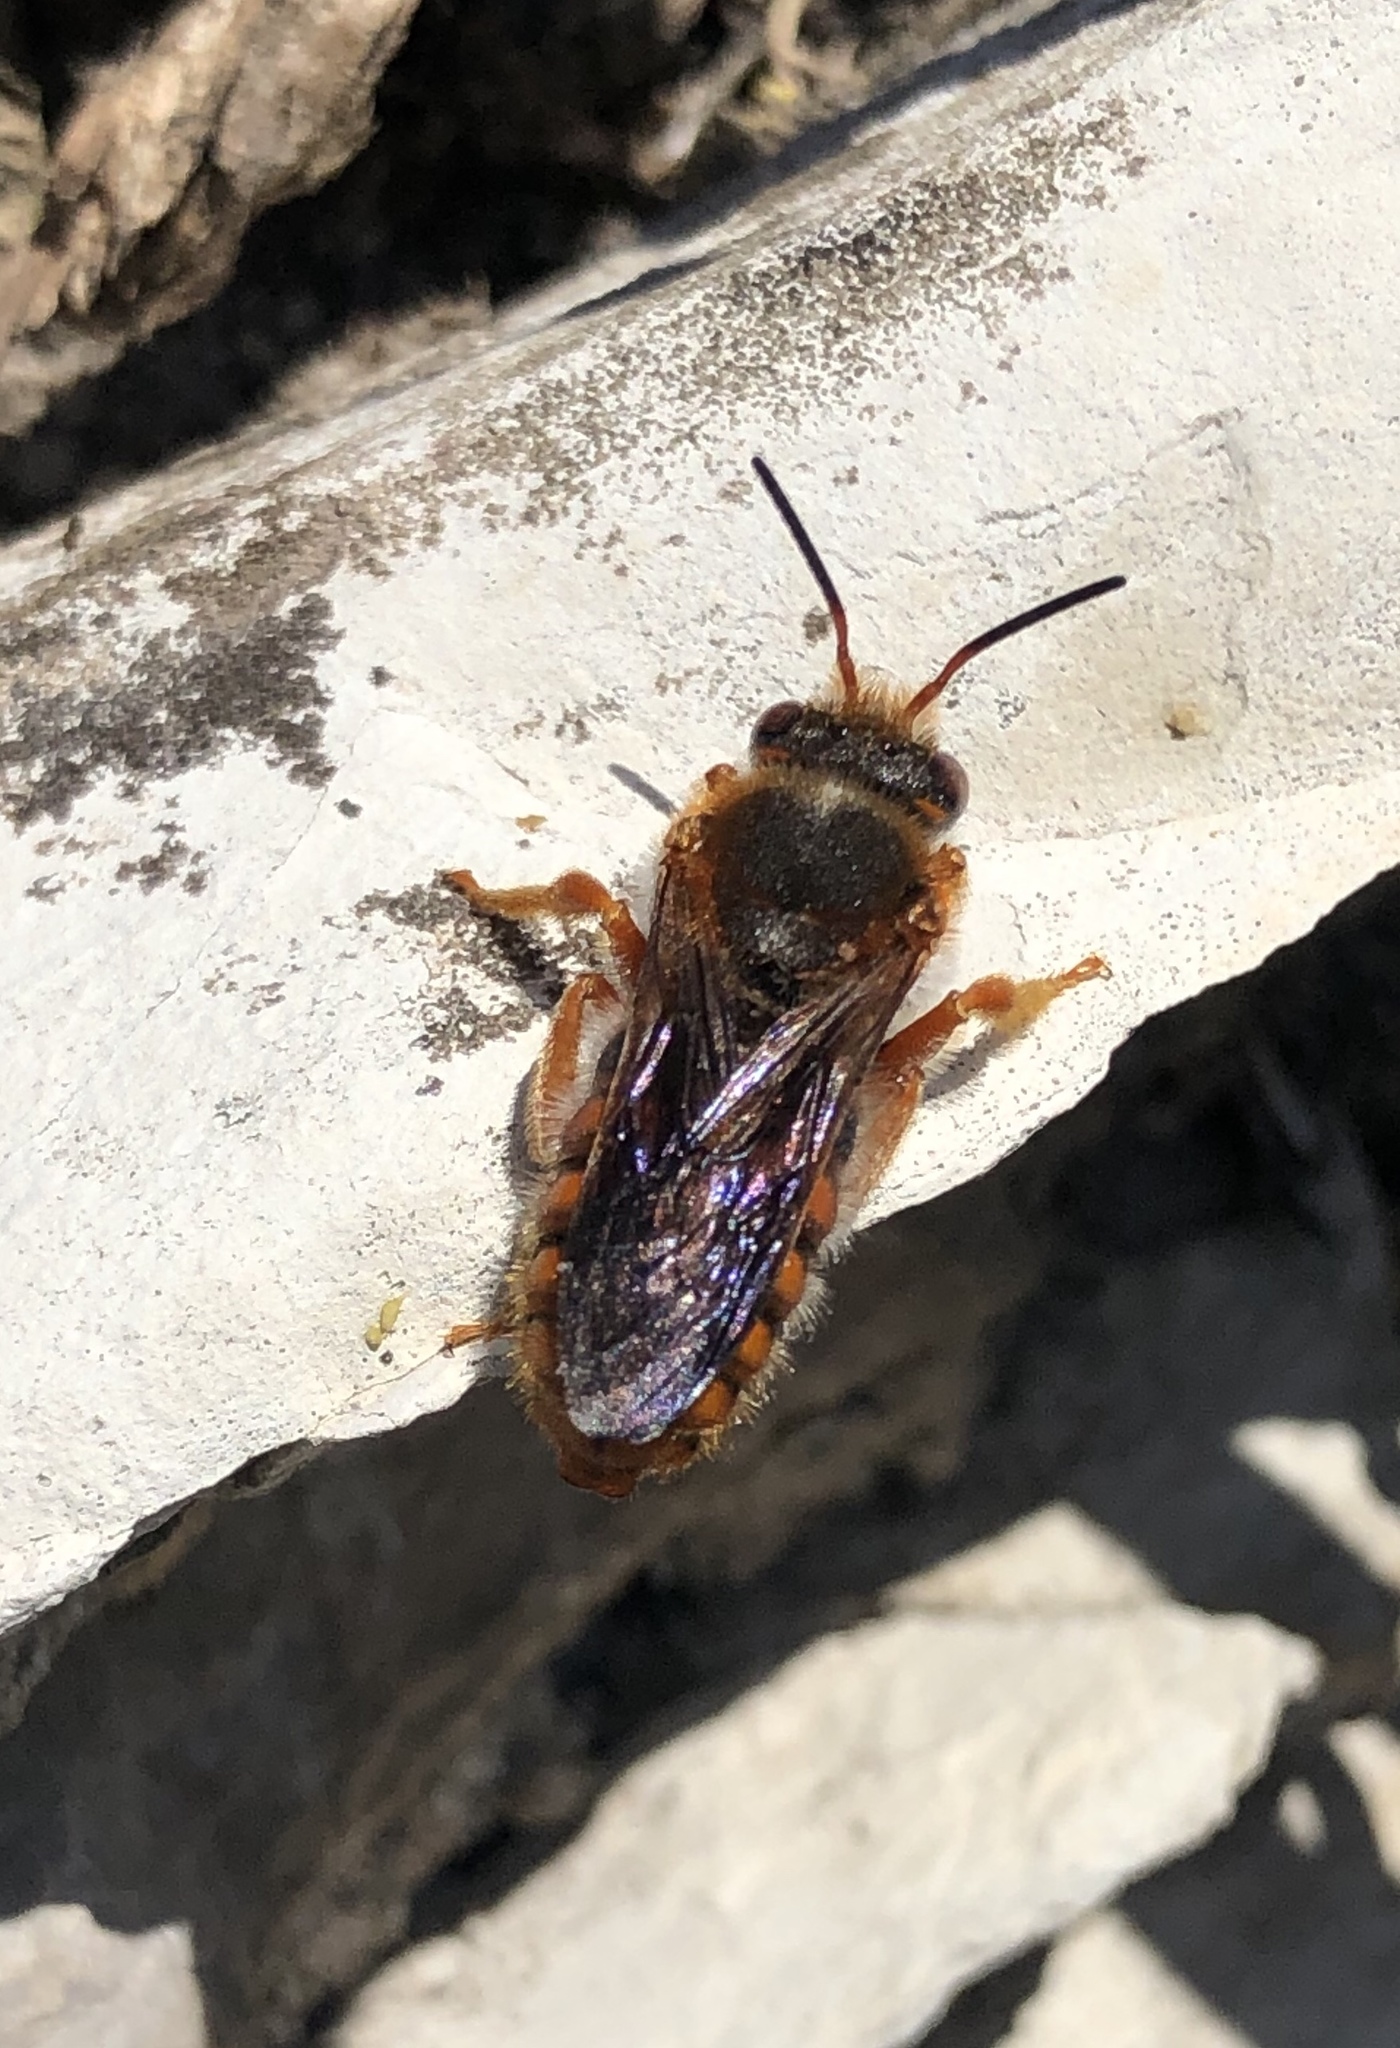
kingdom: Animalia
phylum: Arthropoda
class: Insecta
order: Hymenoptera
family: Megachilidae
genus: Rhodanthidium
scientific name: Rhodanthidium sticticum
